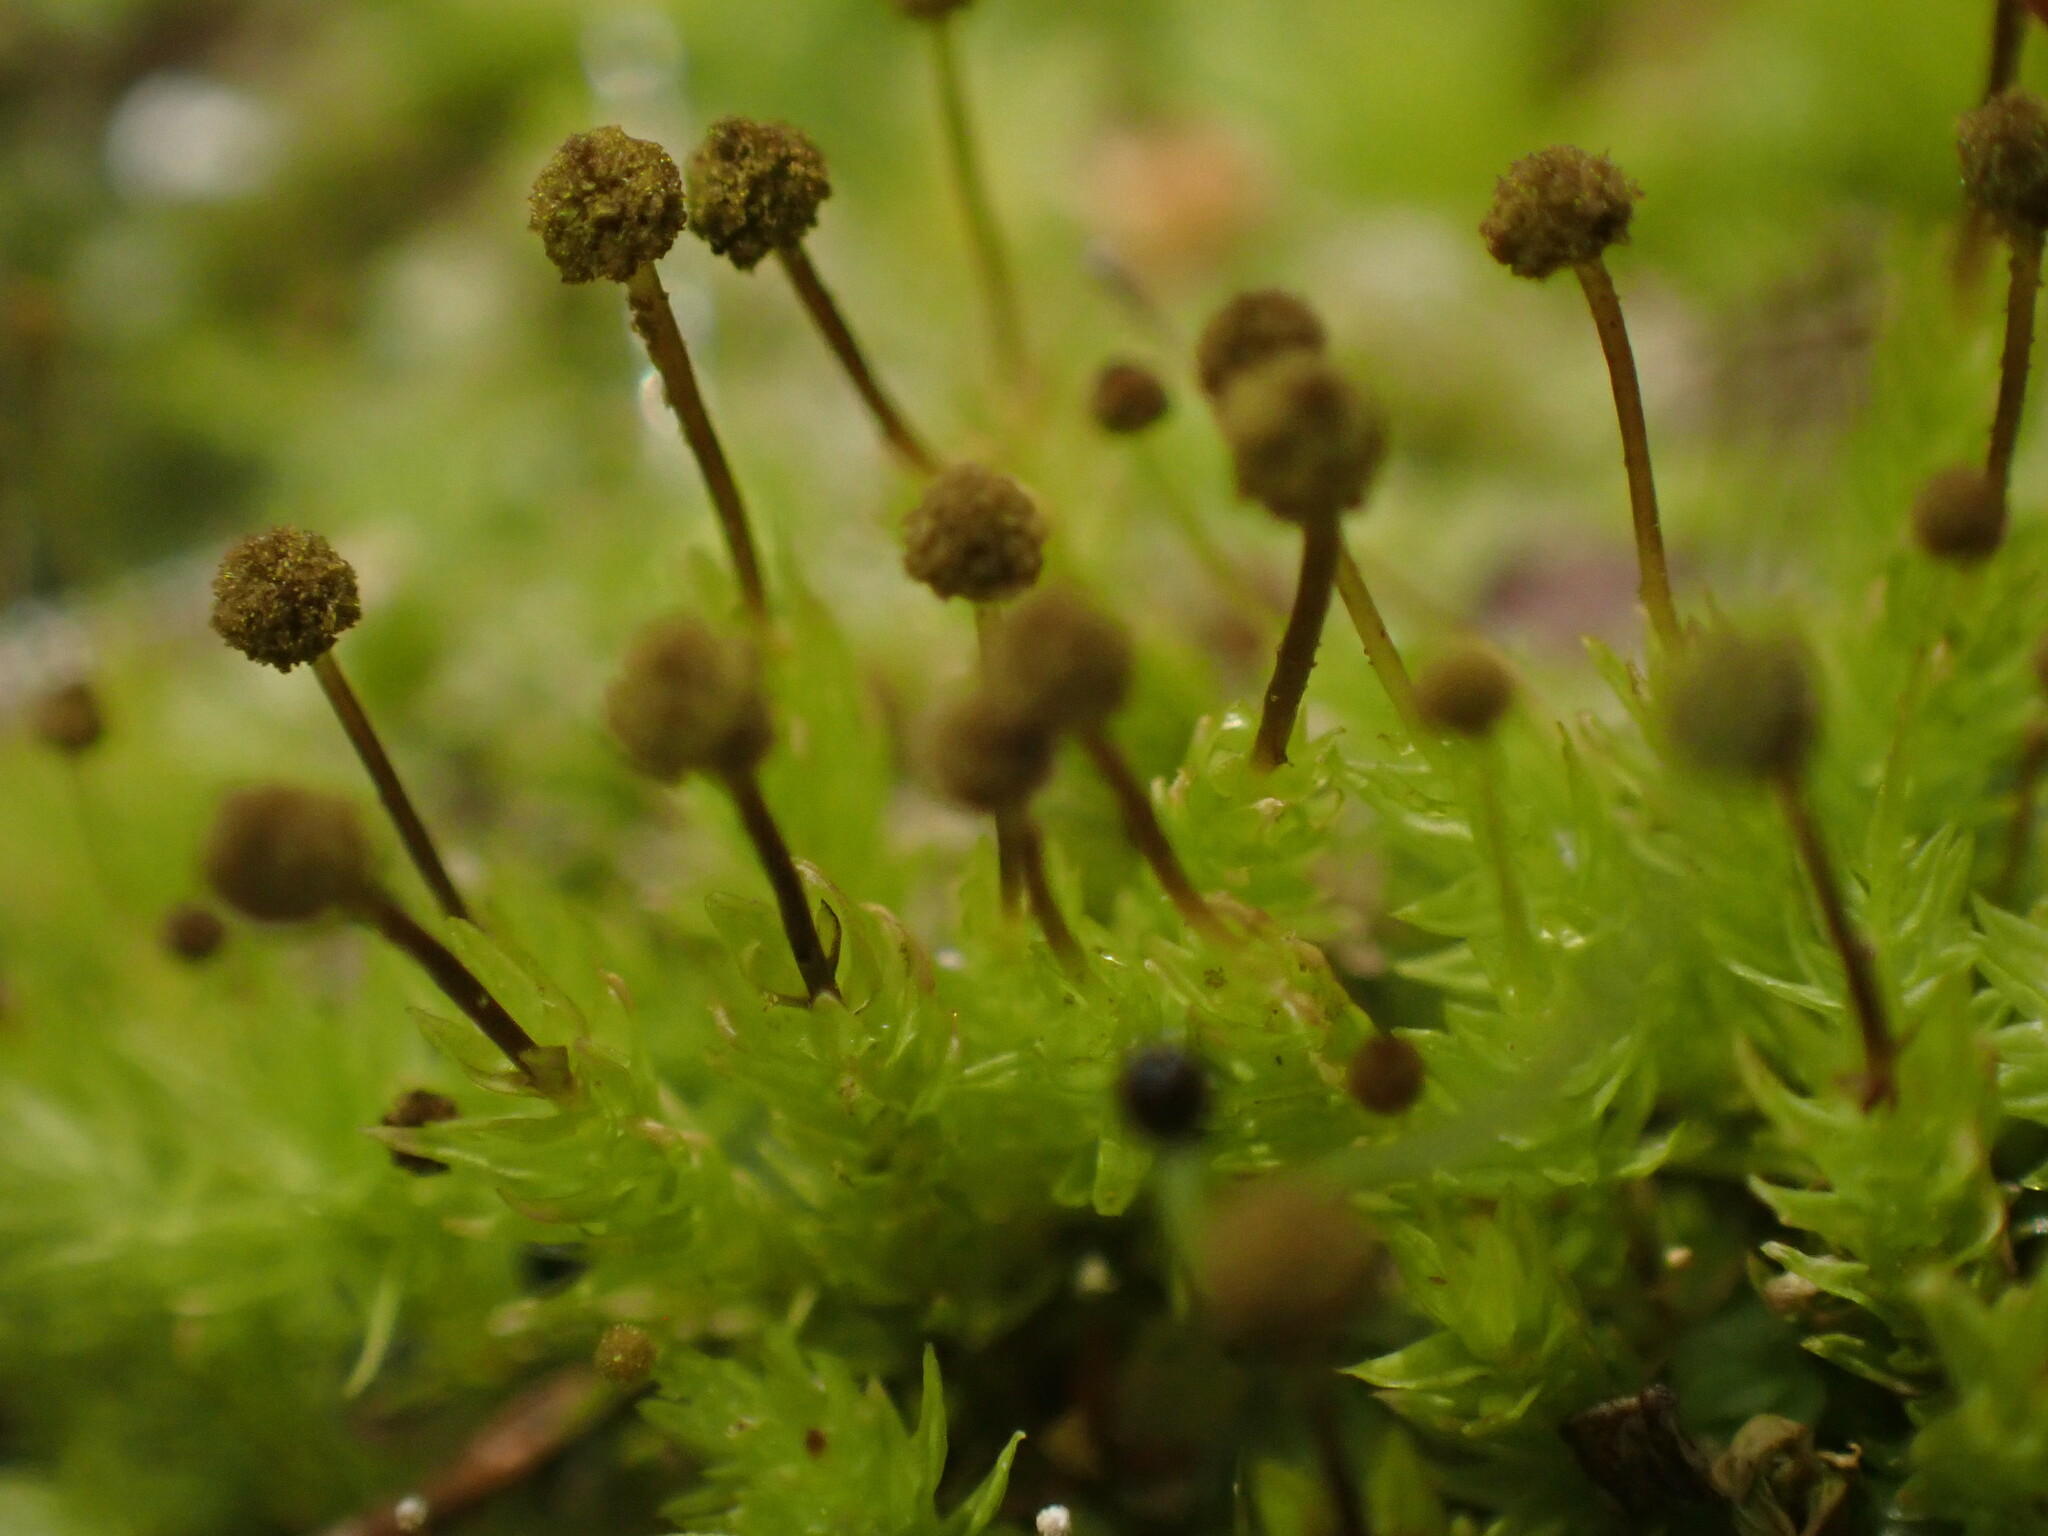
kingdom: Plantae
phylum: Bryophyta
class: Bryopsida
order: Aulacomniales
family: Aulacomniaceae
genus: Aulacomnium
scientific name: Aulacomnium androgynum
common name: Little groove moss
